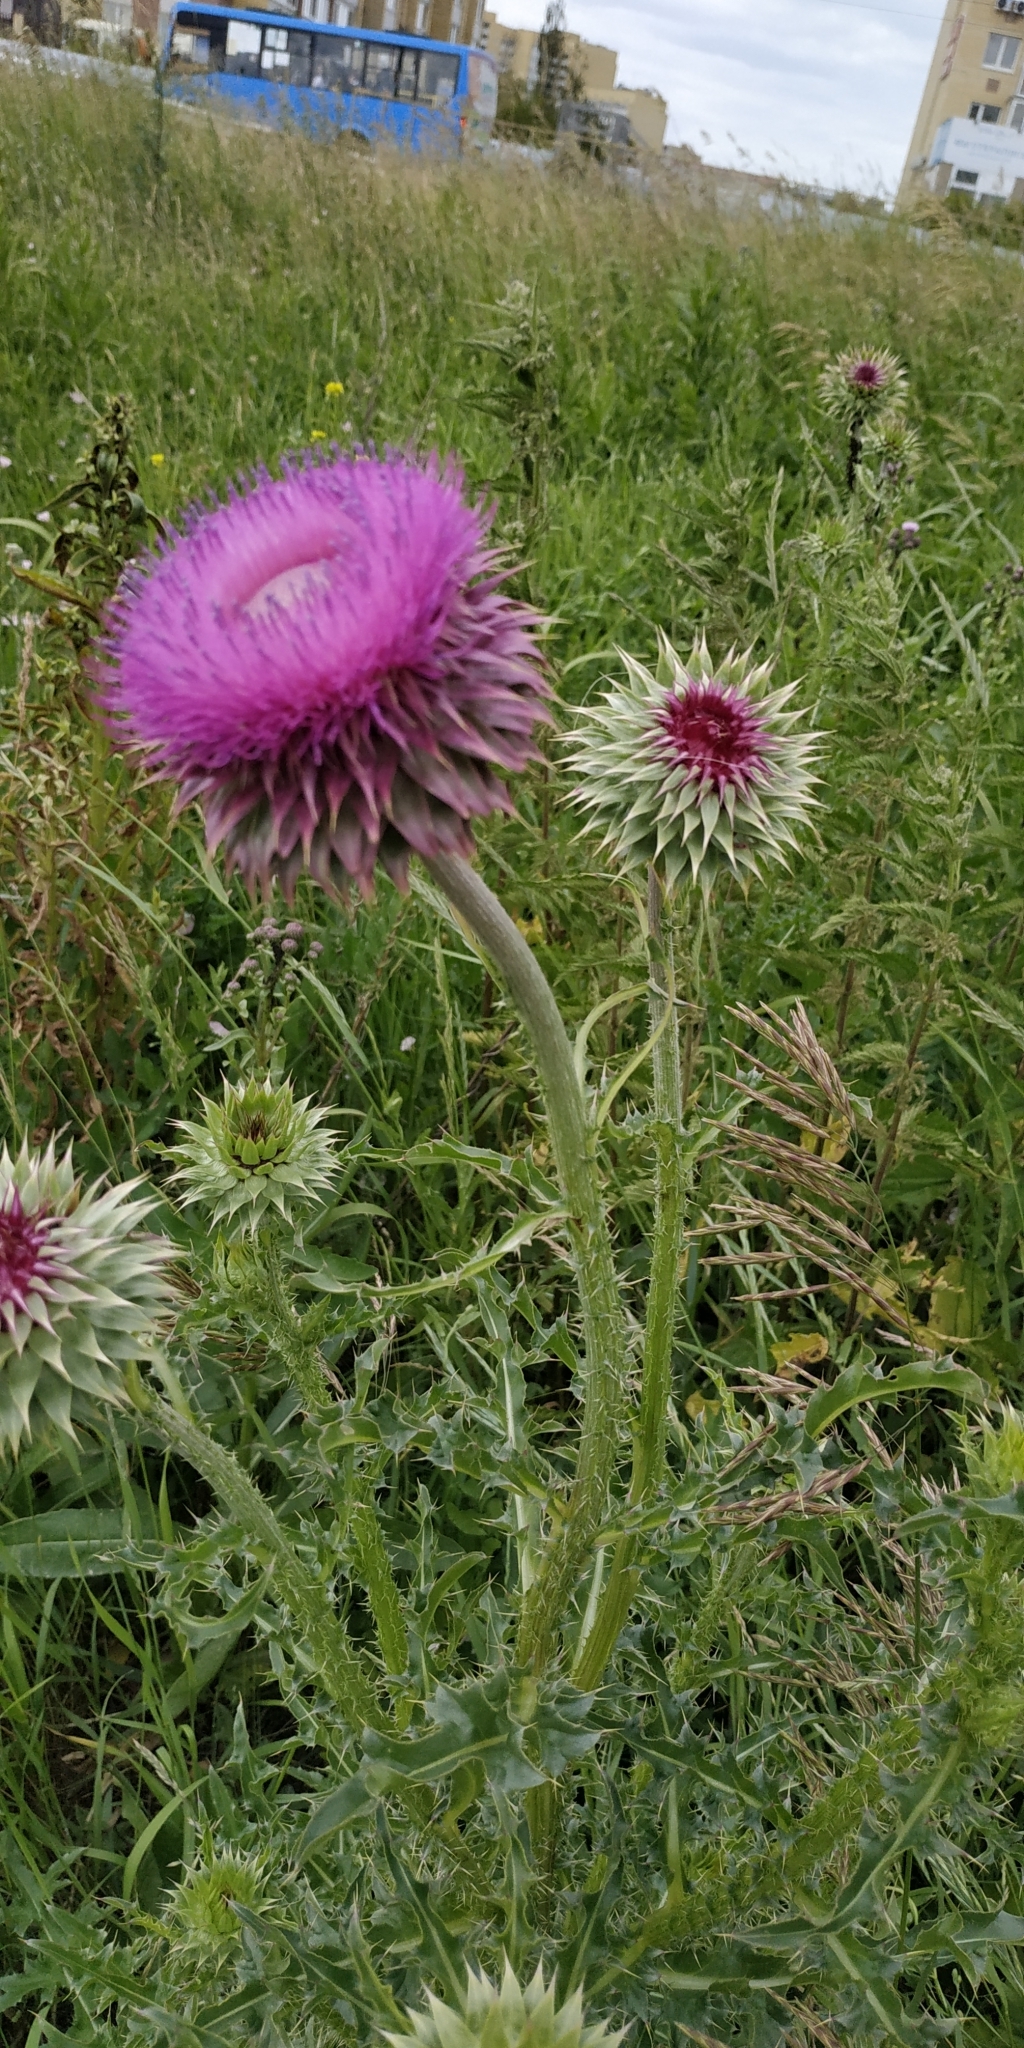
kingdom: Plantae
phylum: Tracheophyta
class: Magnoliopsida
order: Asterales
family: Asteraceae
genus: Carduus
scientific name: Carduus nutans
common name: Musk thistle
